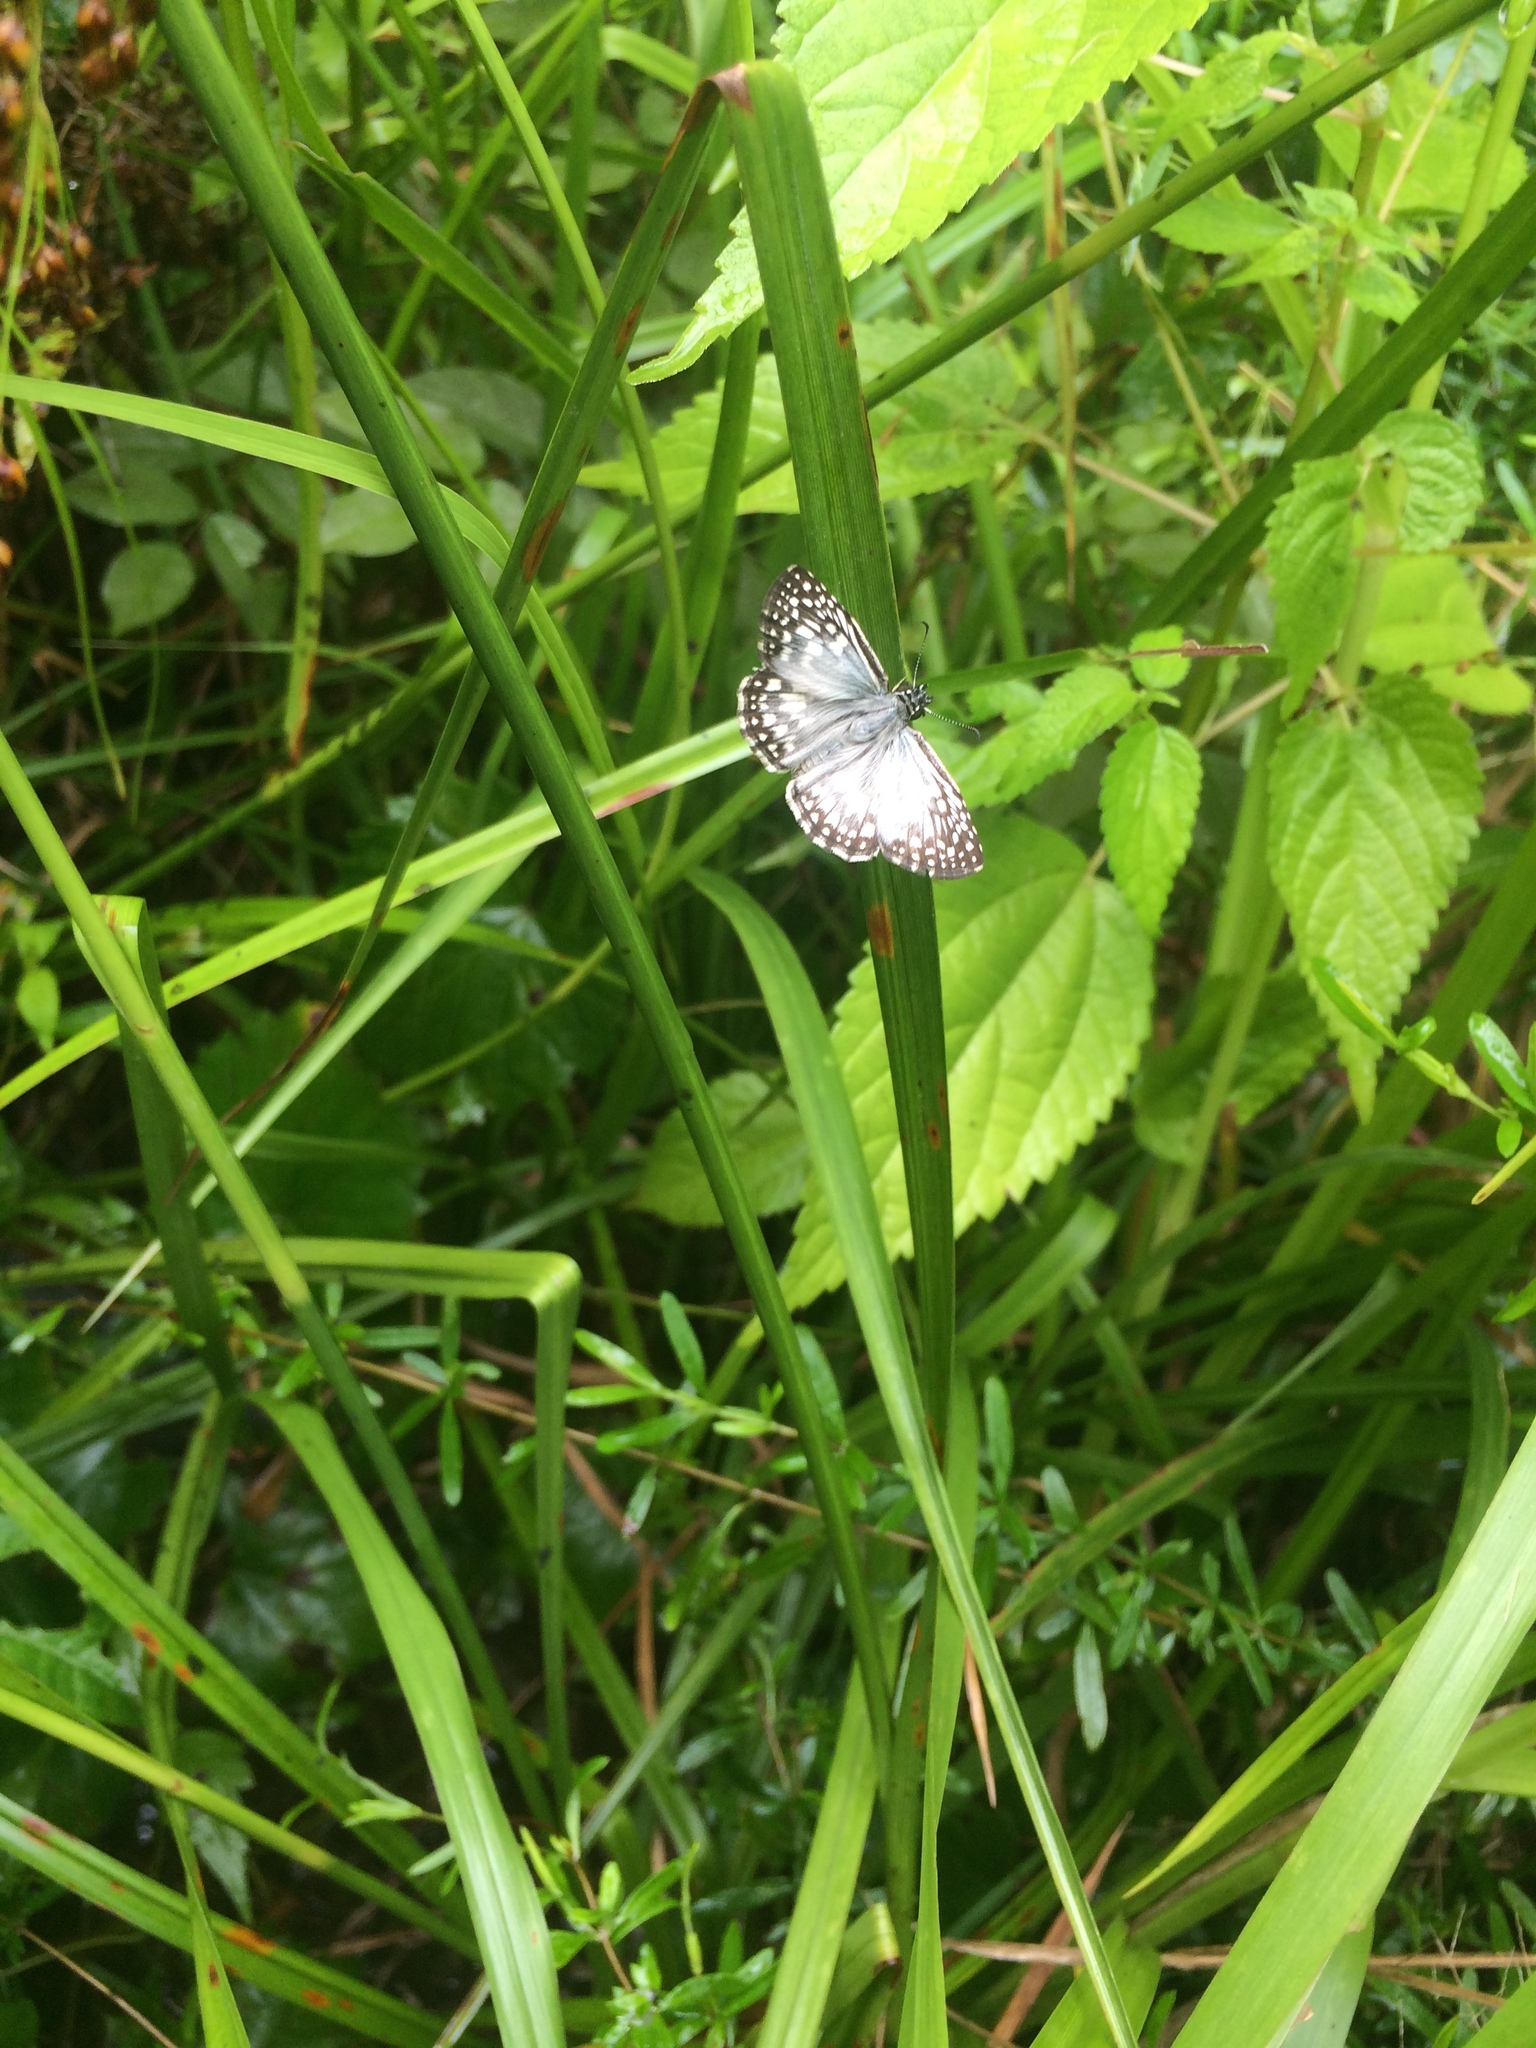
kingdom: Animalia
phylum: Arthropoda
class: Insecta
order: Lepidoptera
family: Hesperiidae
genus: Pyrgus
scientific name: Pyrgus oileus
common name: Tropical checkered-skipper
